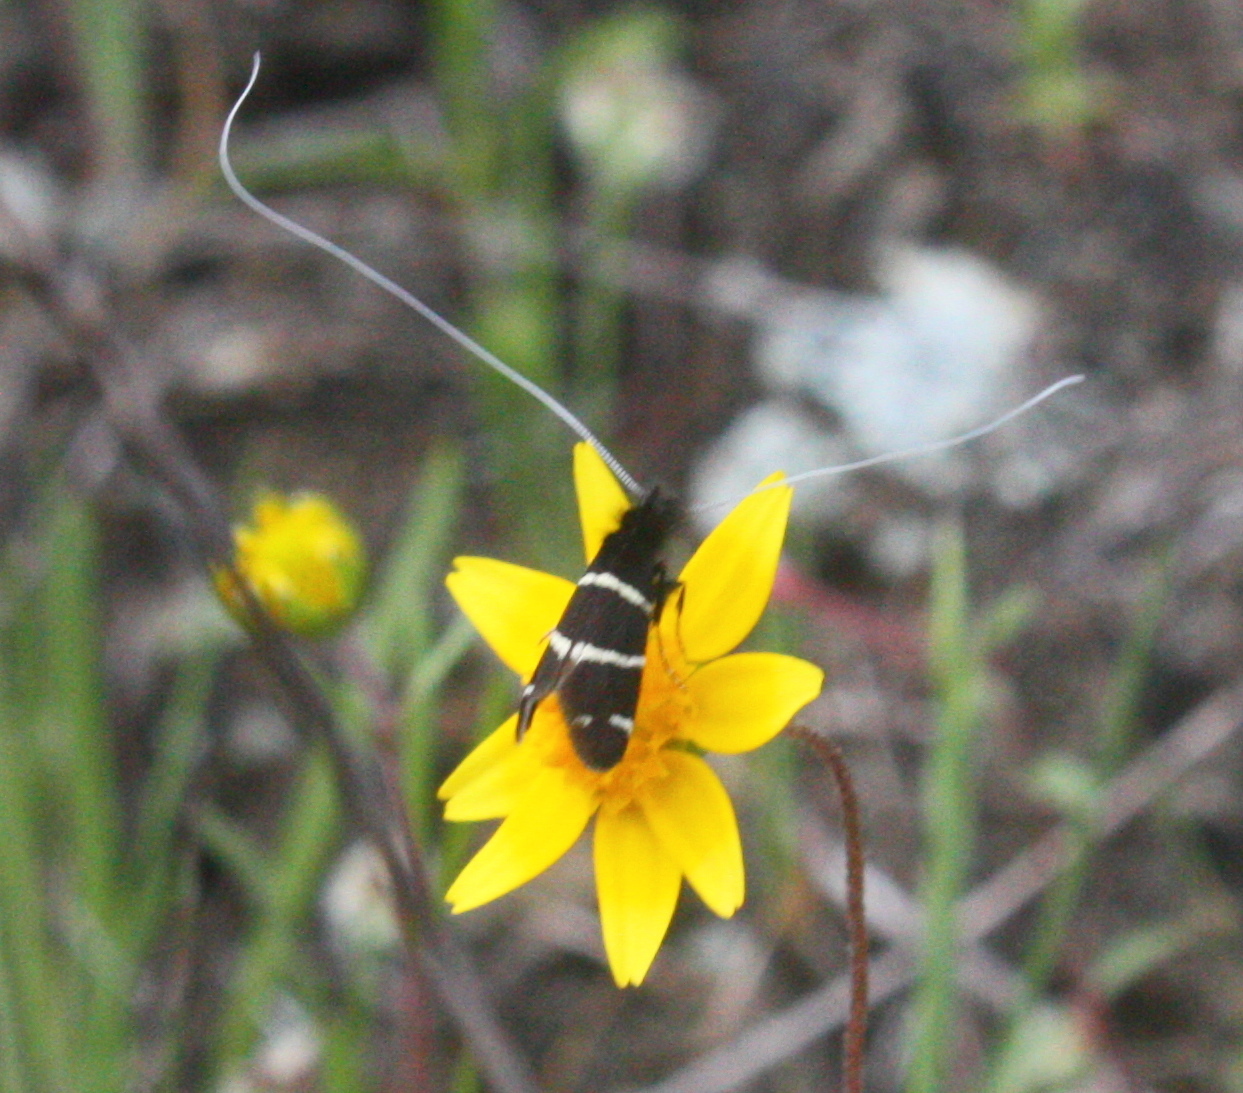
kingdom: Animalia
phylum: Arthropoda
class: Insecta
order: Lepidoptera
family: Adelidae
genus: Adela
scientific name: Adela trigrapha
